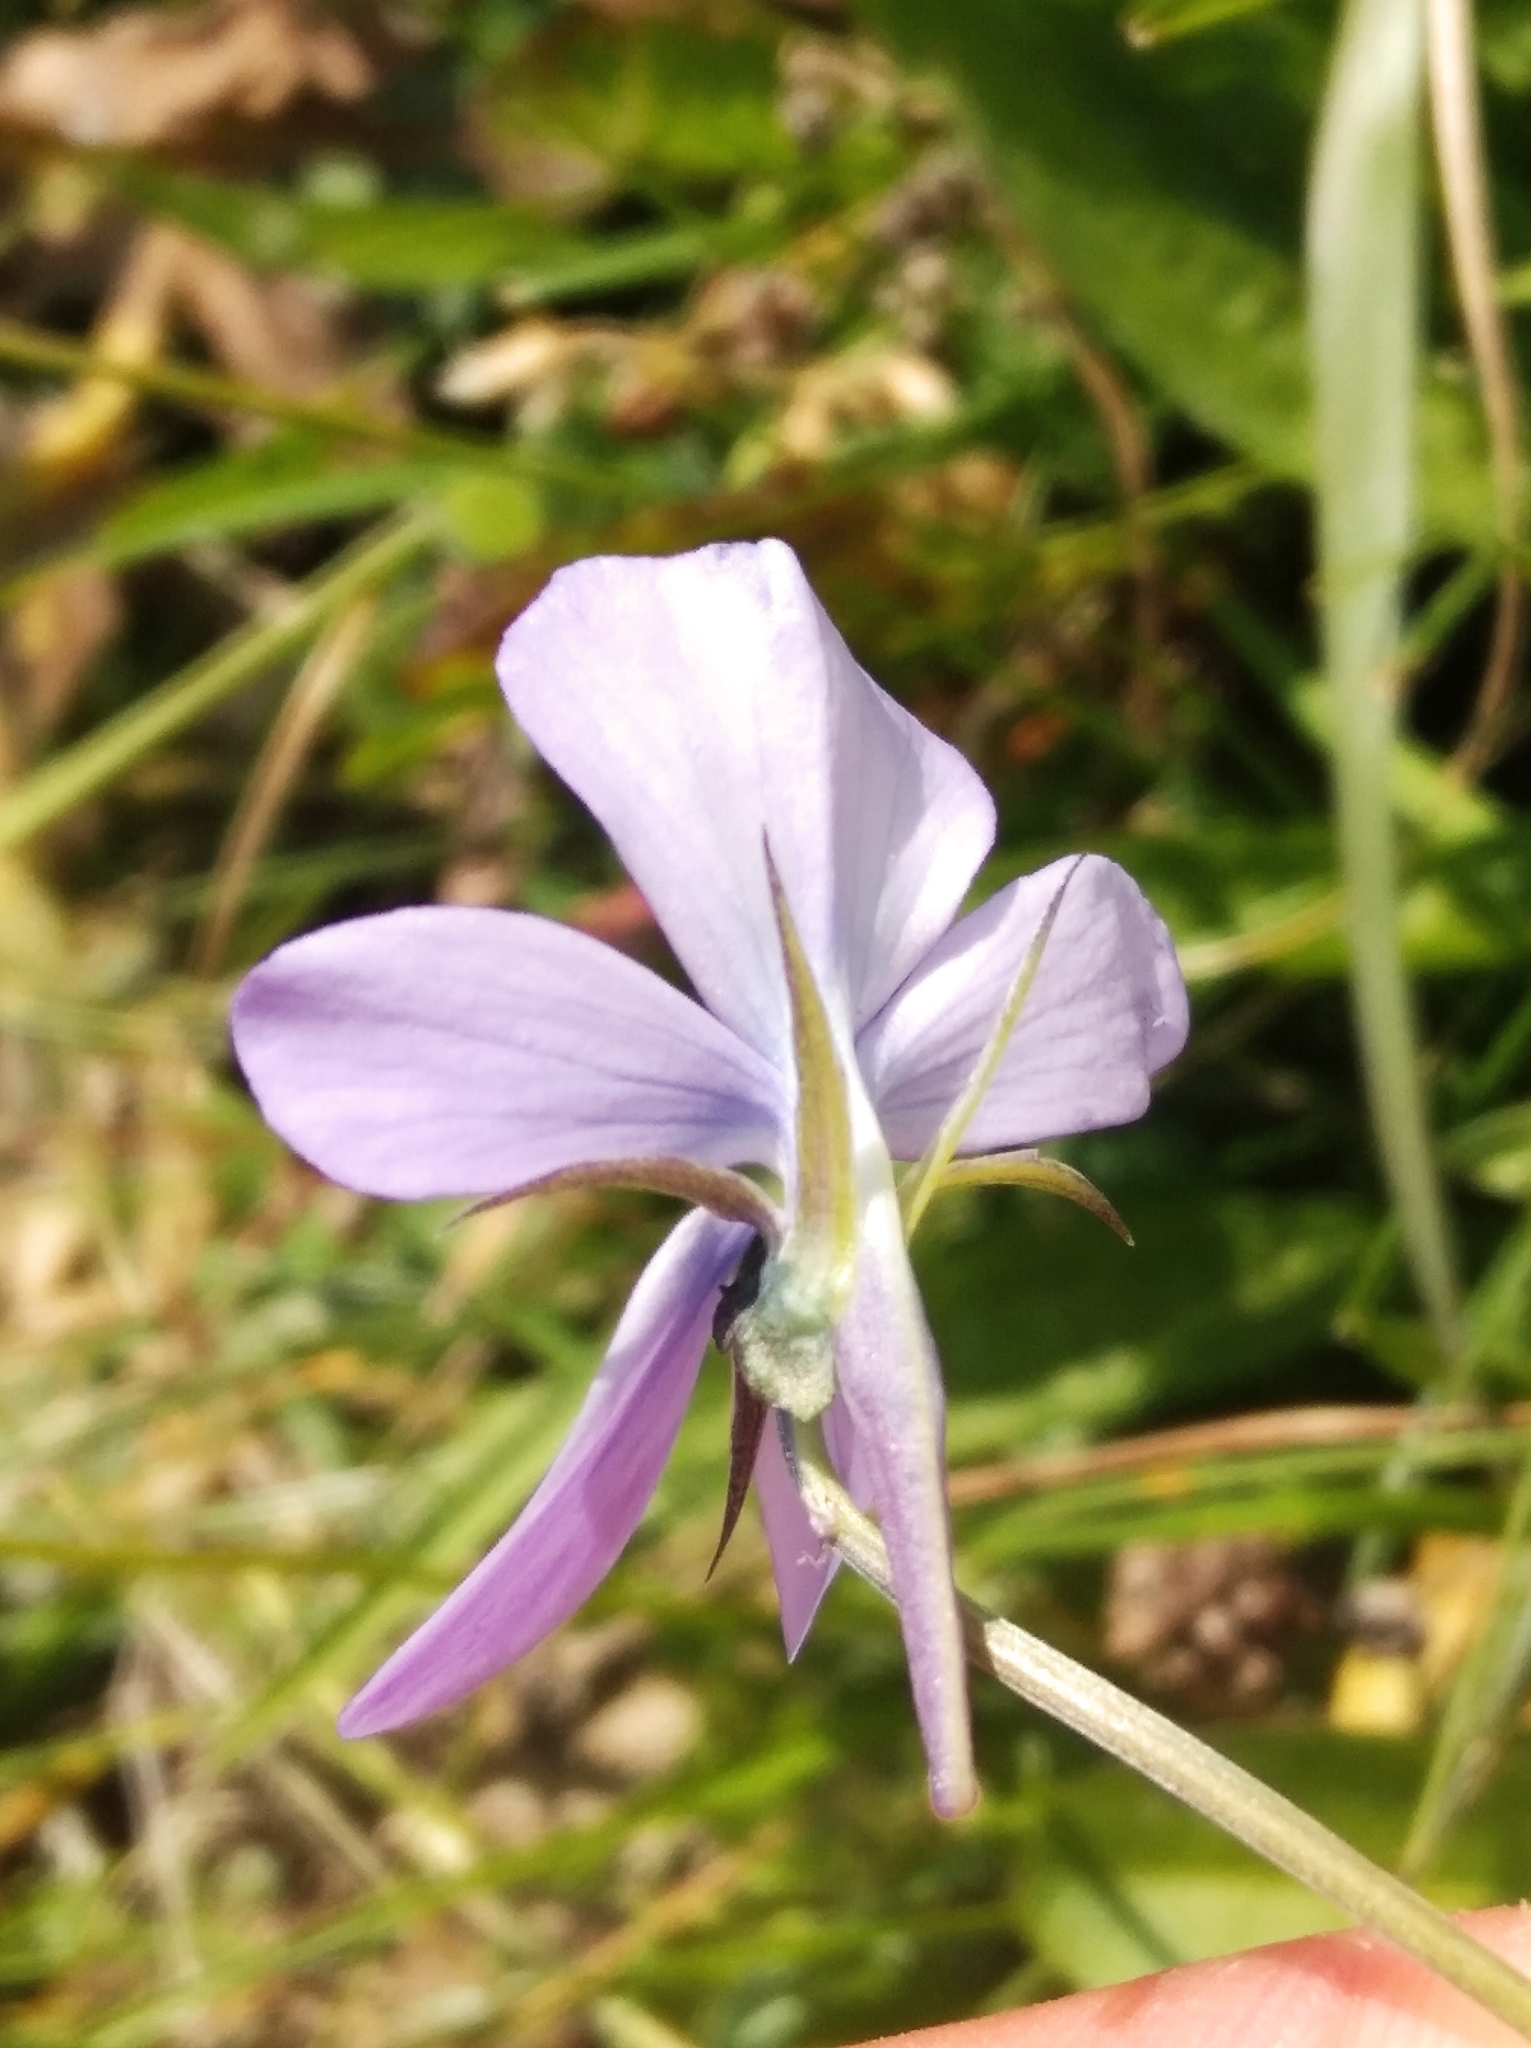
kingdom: Plantae
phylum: Tracheophyta
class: Magnoliopsida
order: Malpighiales
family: Violaceae
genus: Viola
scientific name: Viola cornuta
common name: Horned pansy
